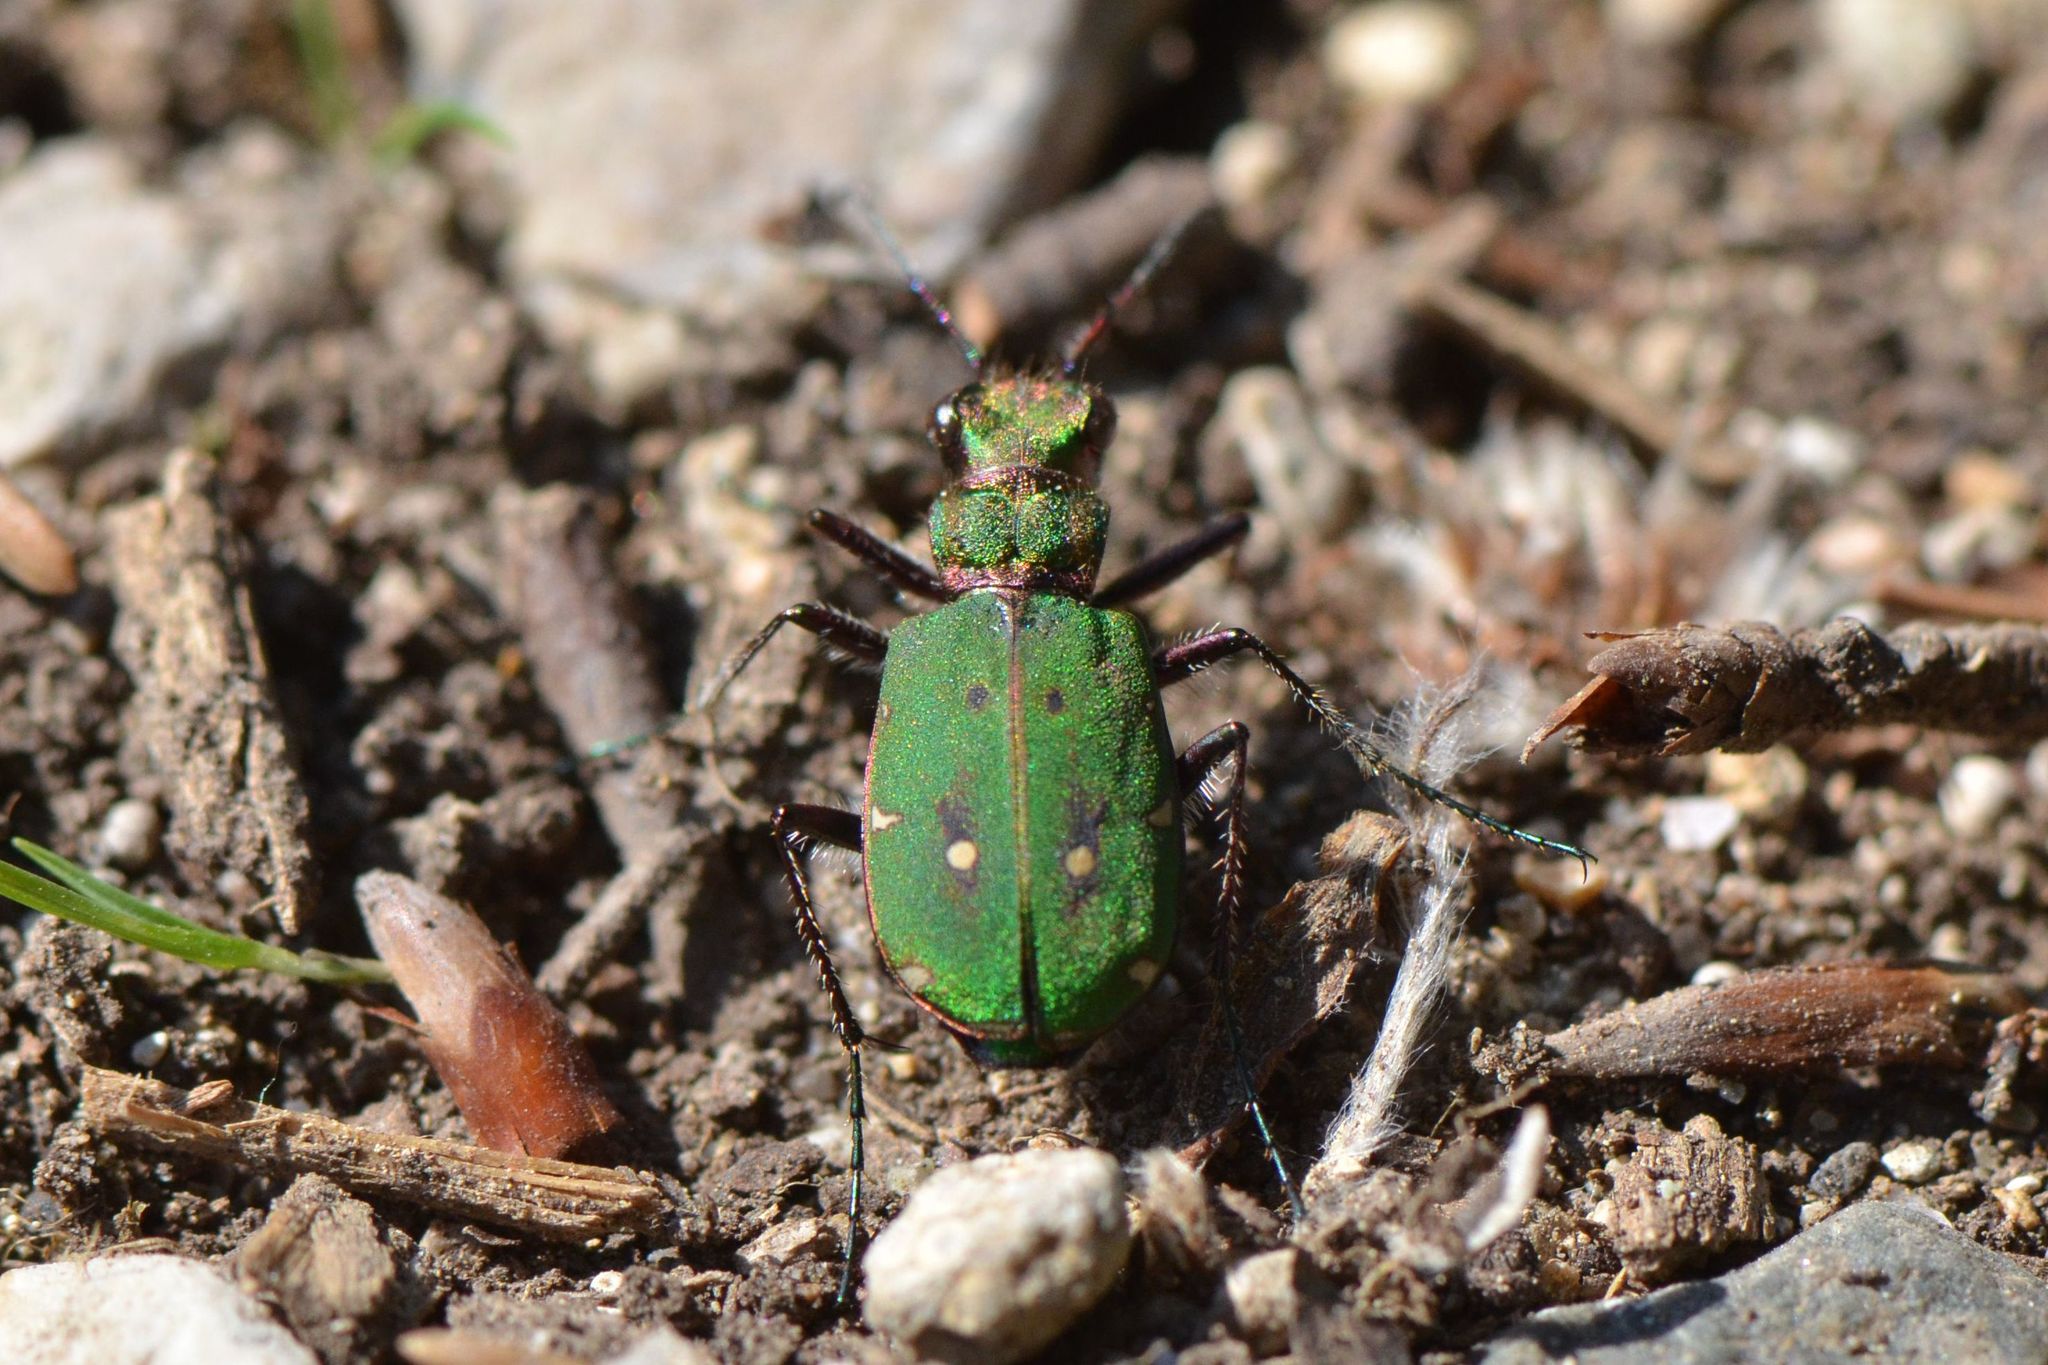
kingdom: Animalia
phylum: Arthropoda
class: Insecta
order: Coleoptera
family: Carabidae
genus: Cicindela
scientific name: Cicindela campestris
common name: Common tiger beetle
